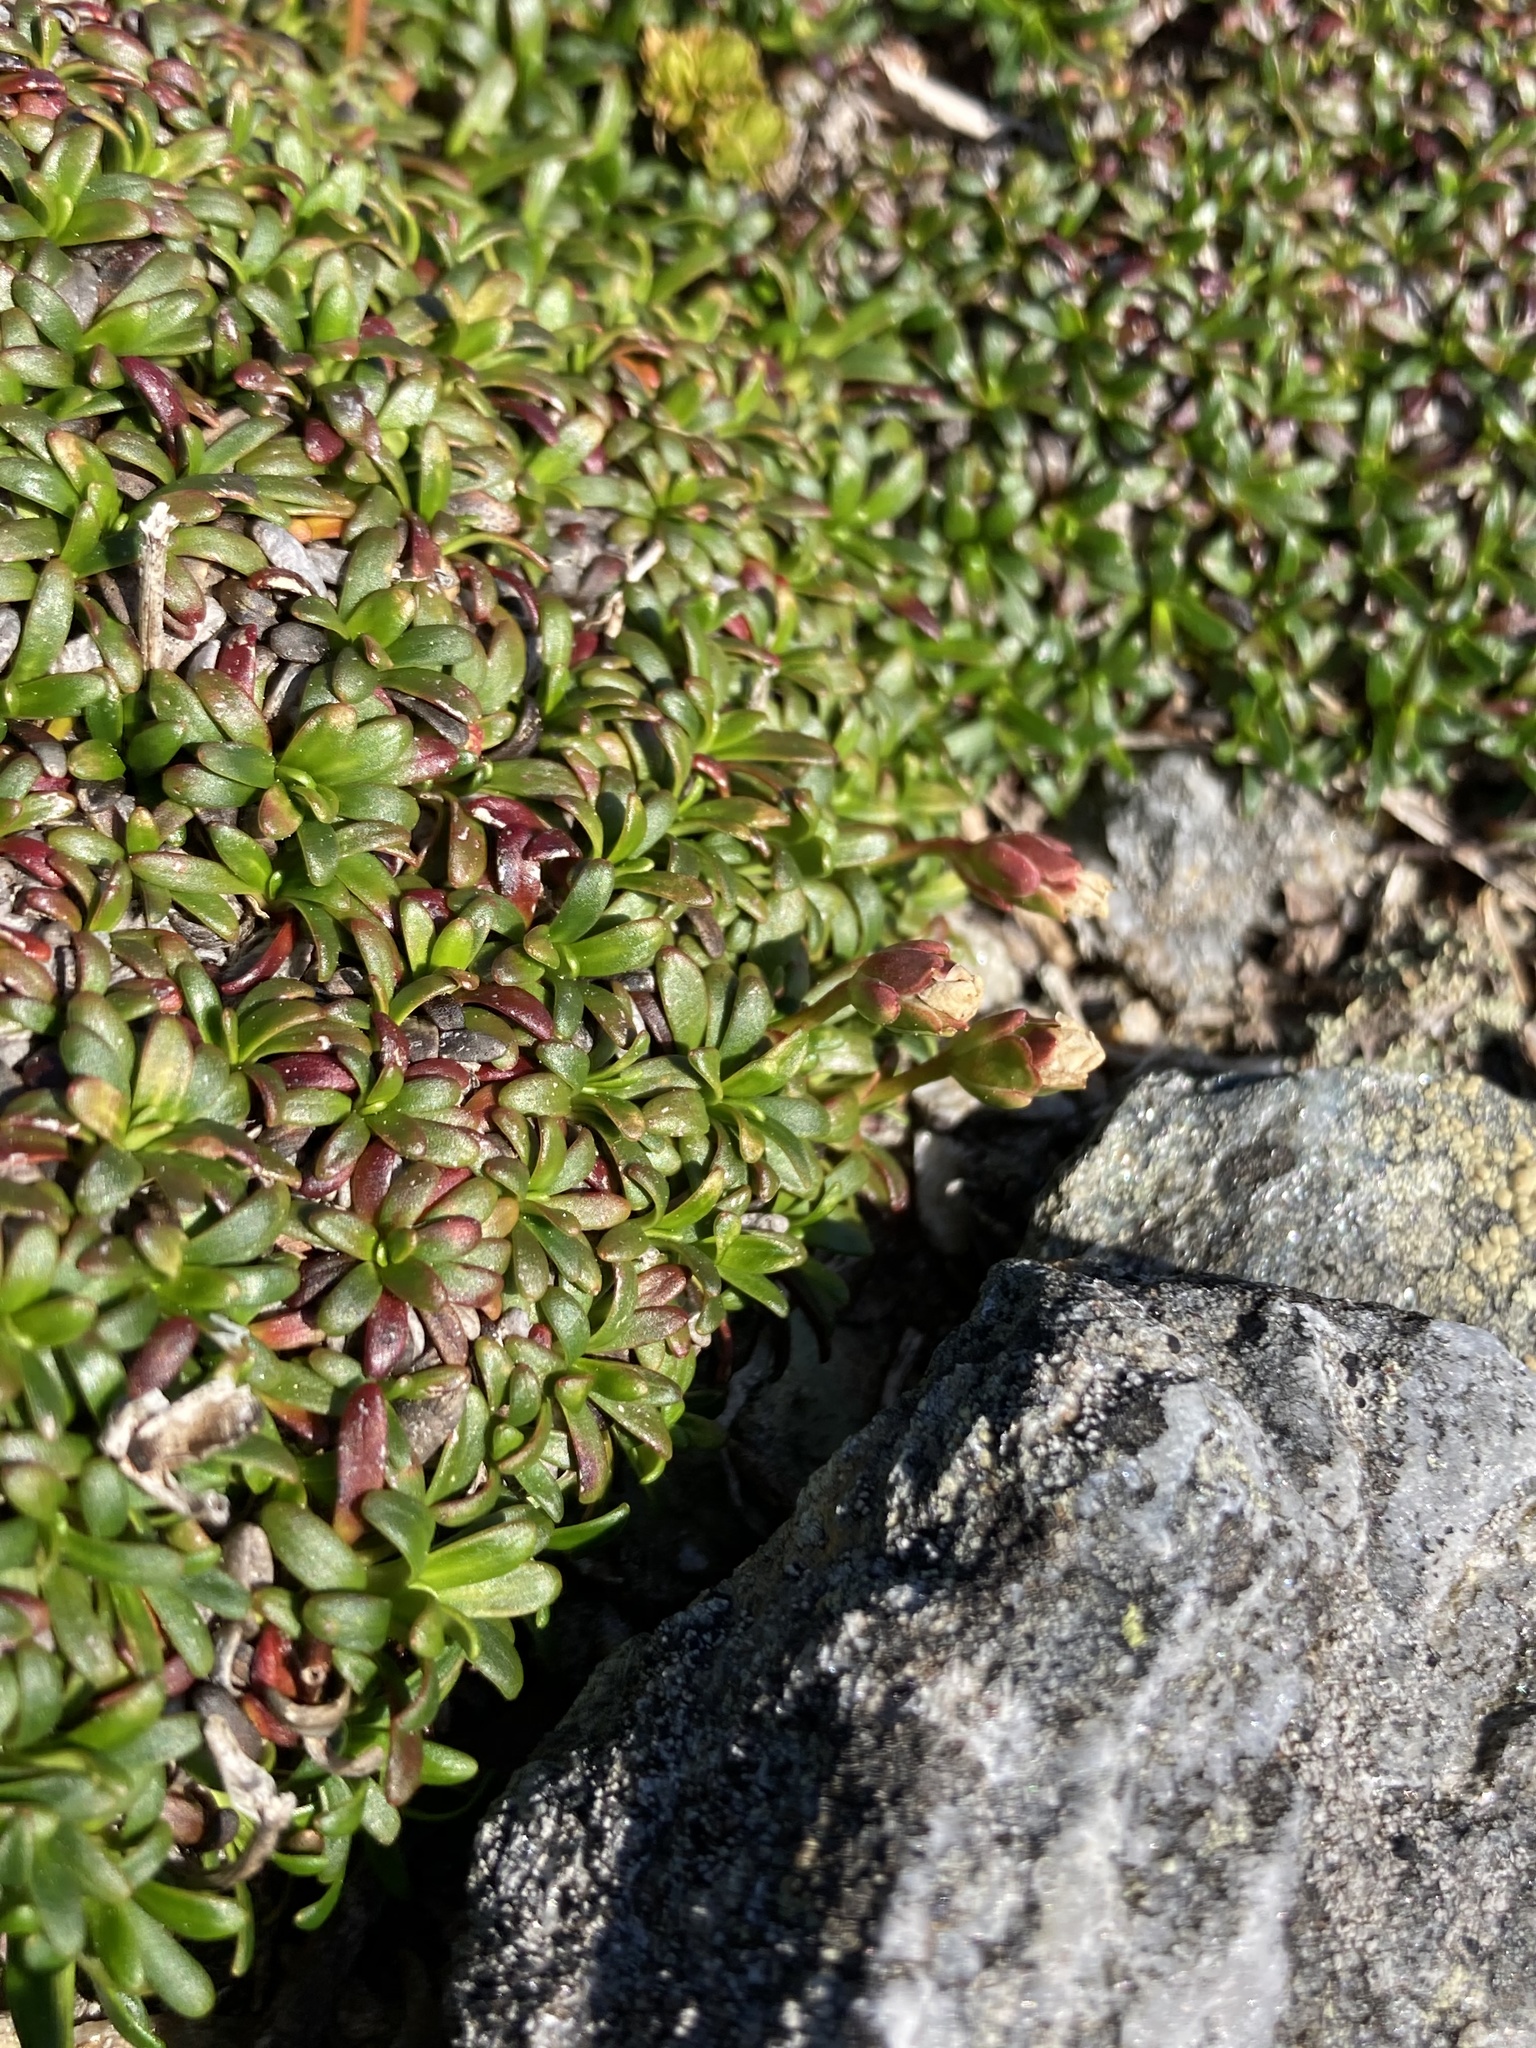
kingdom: Plantae
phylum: Tracheophyta
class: Magnoliopsida
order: Ericales
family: Diapensiaceae
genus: Diapensia
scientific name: Diapensia lapponica
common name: Diapensia
